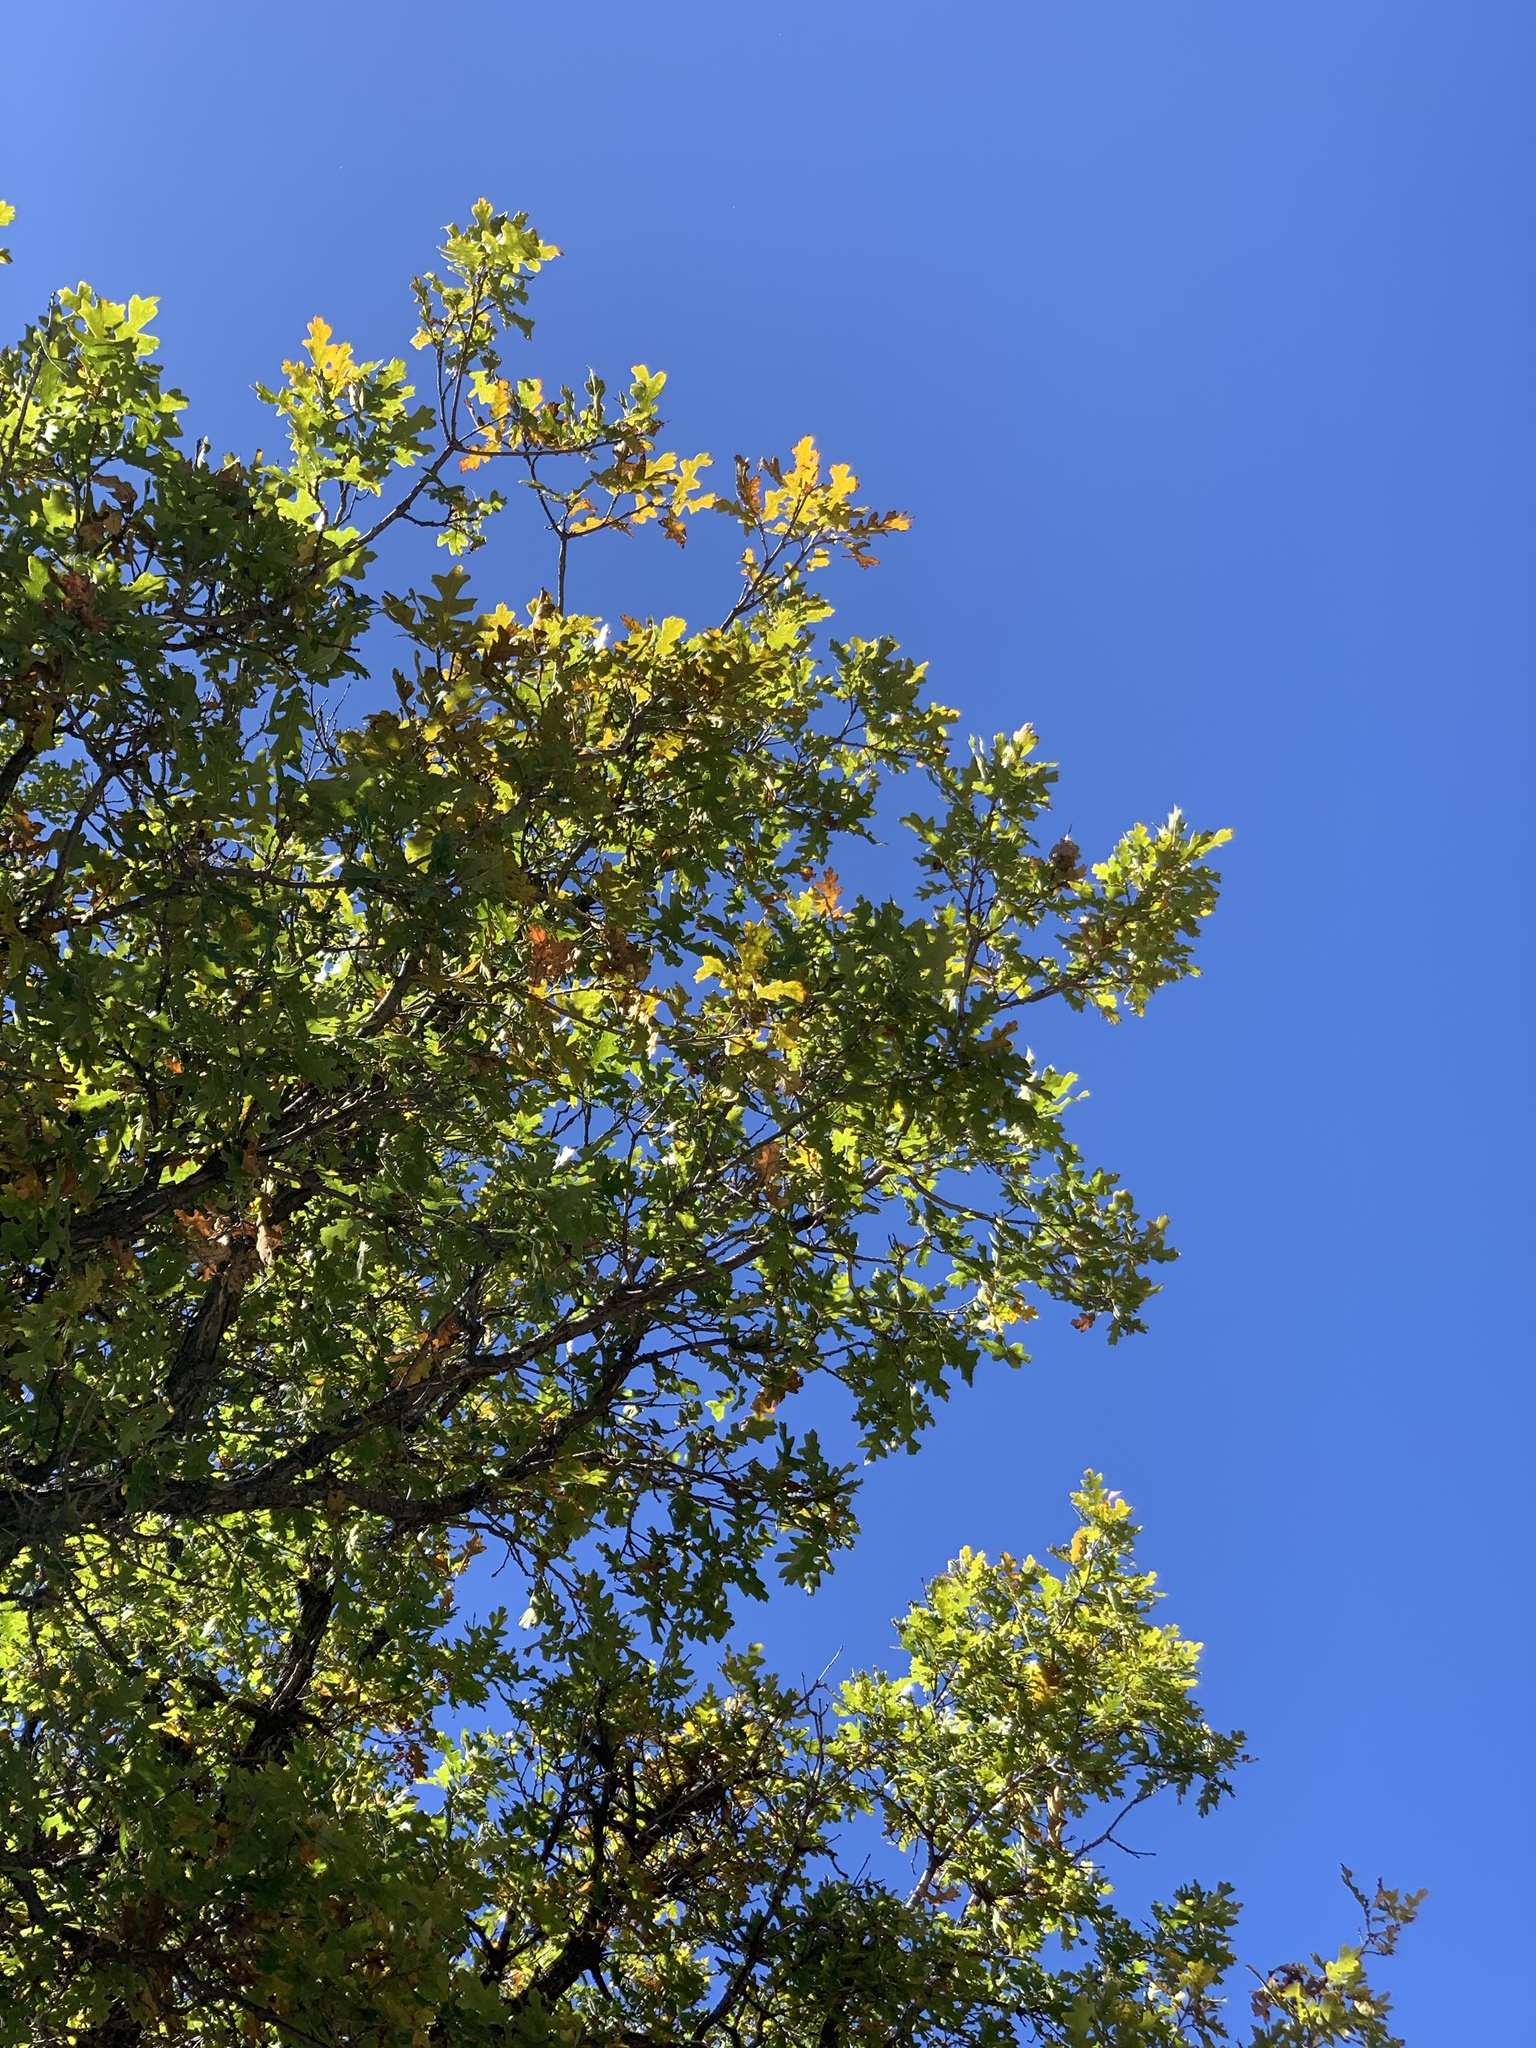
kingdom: Plantae
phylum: Tracheophyta
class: Magnoliopsida
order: Fagales
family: Fagaceae
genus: Quercus
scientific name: Quercus gambelii
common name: Gambel oak
